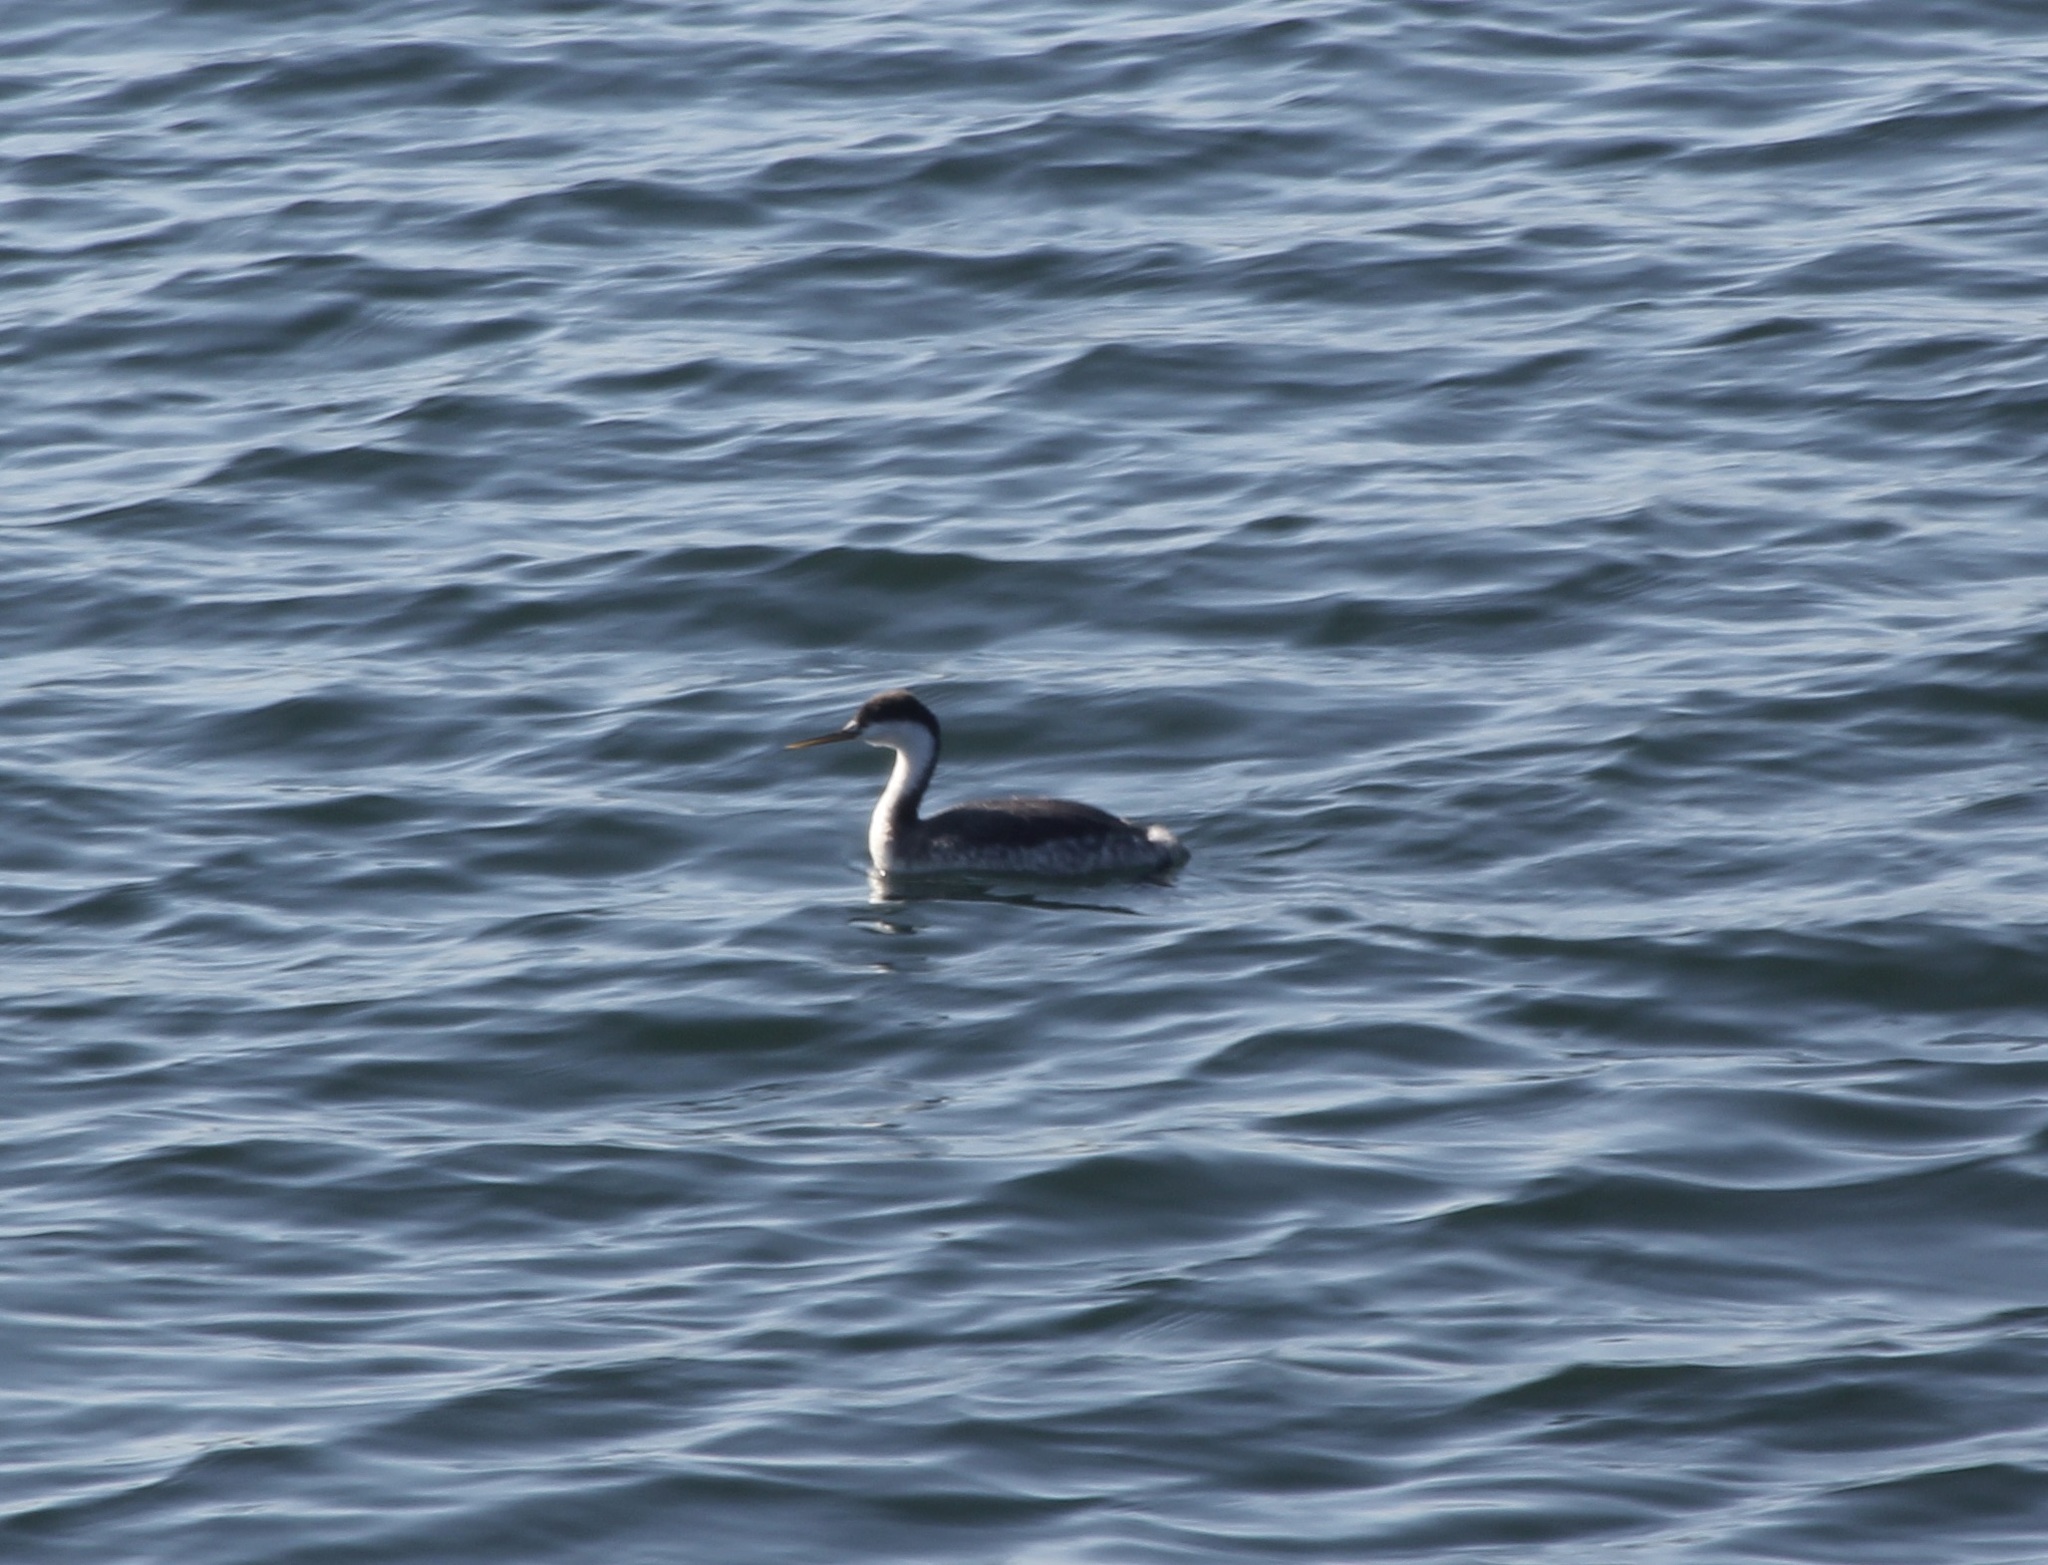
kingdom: Animalia
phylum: Chordata
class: Aves
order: Podicipediformes
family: Podicipedidae
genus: Aechmophorus
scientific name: Aechmophorus occidentalis
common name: Western grebe
